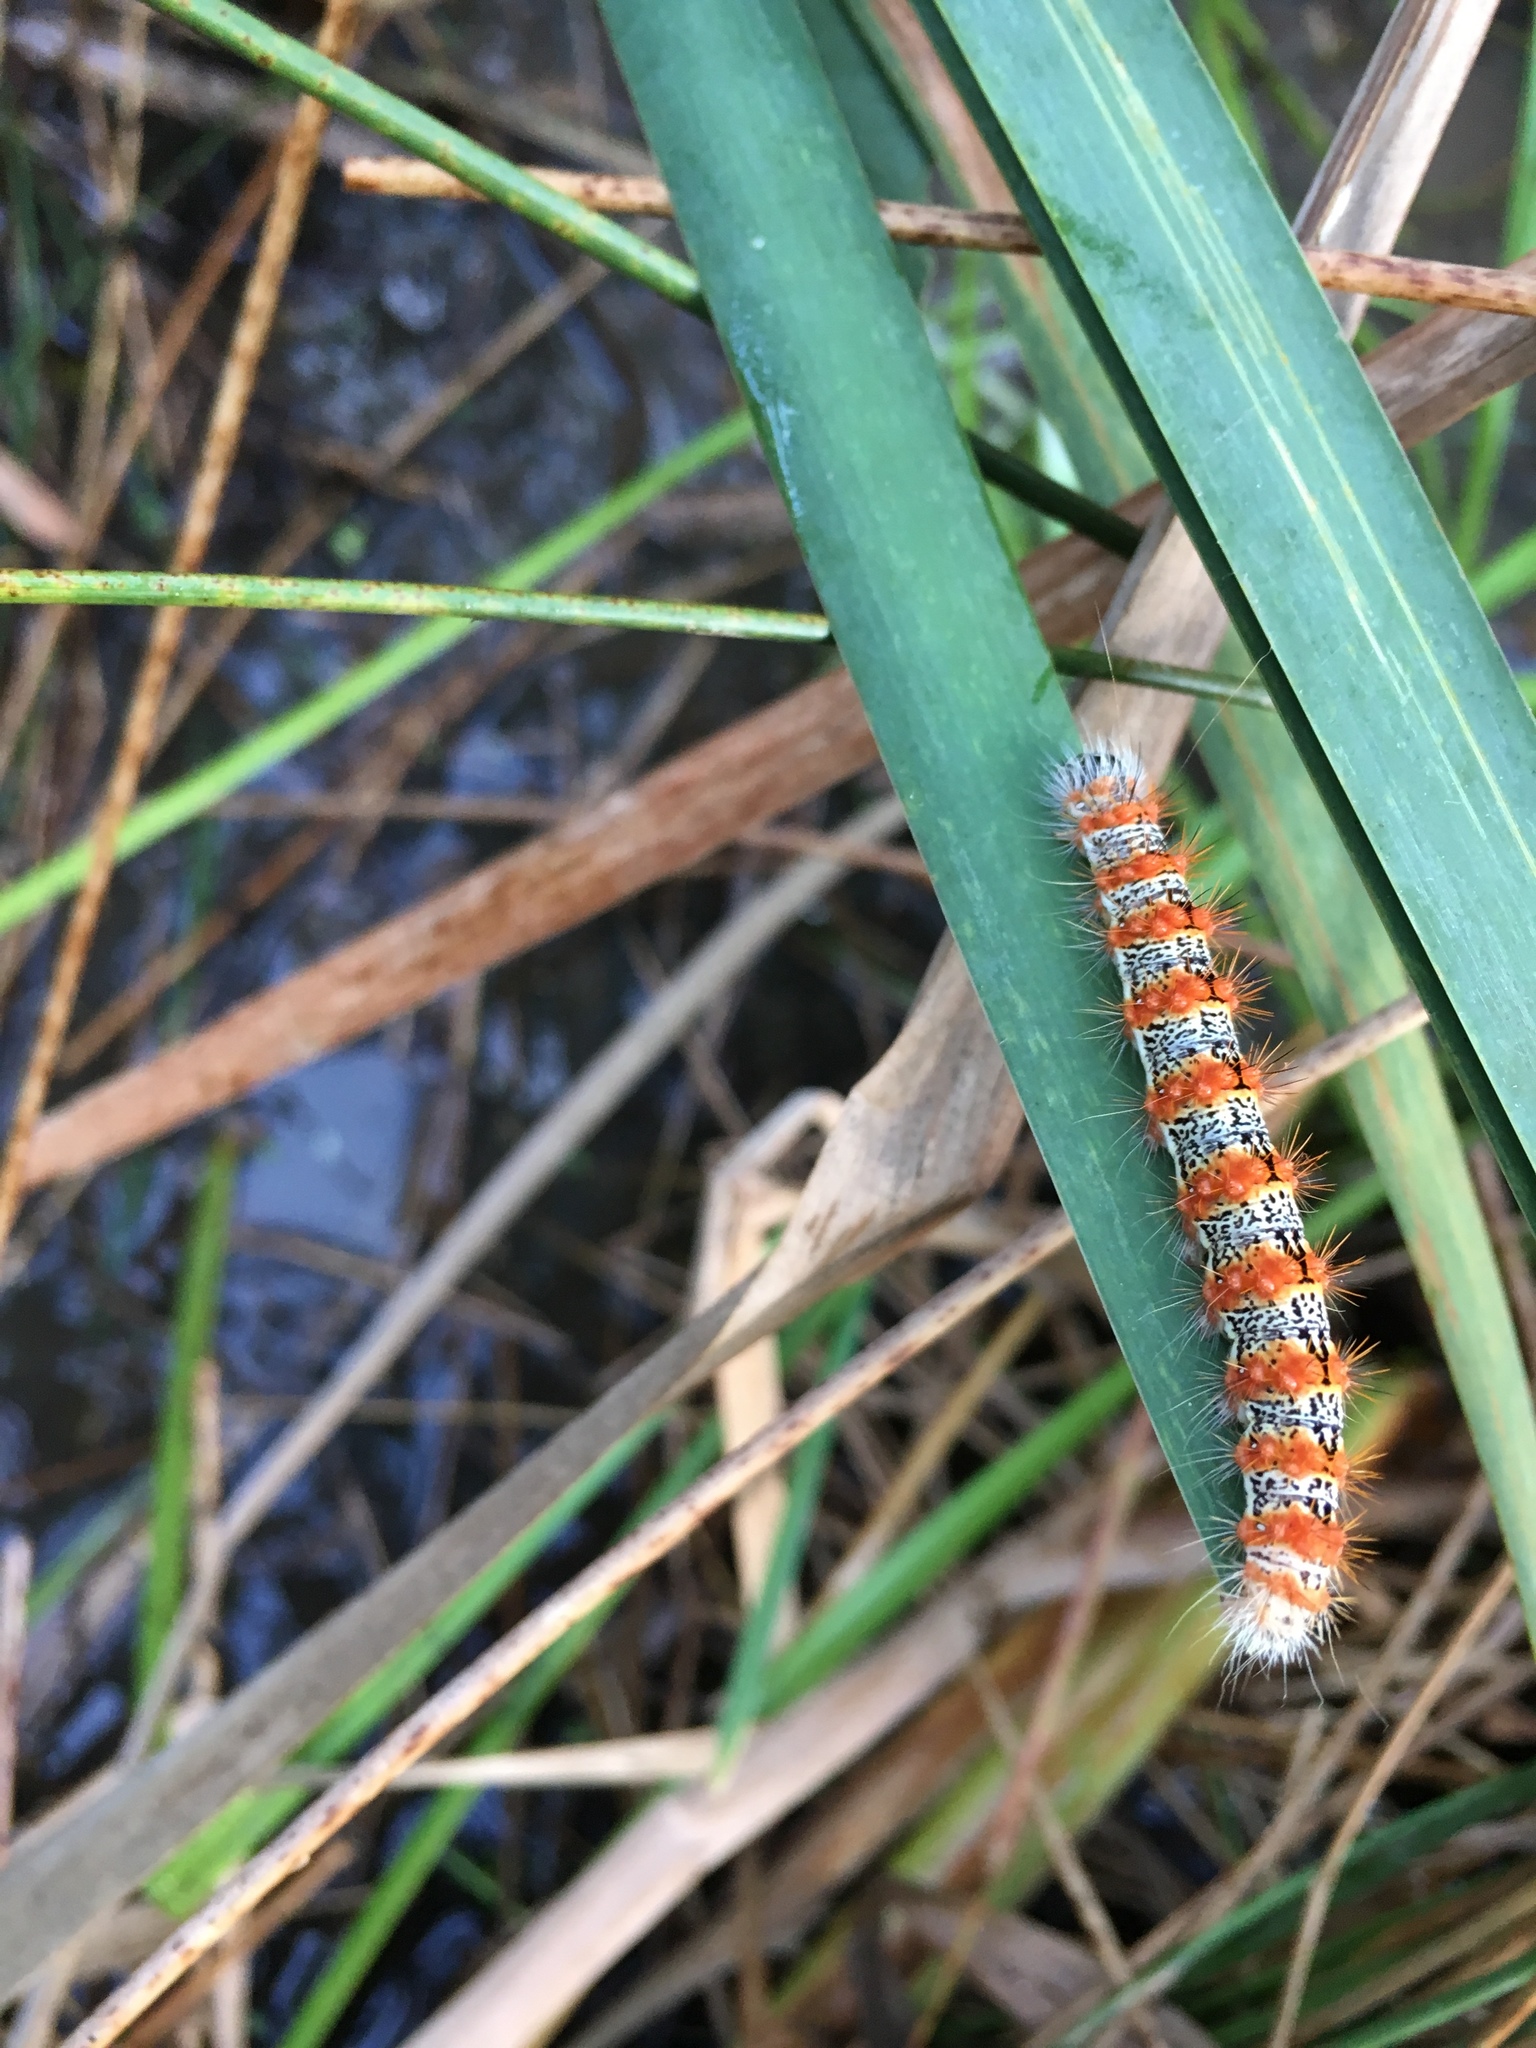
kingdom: Animalia
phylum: Arthropoda
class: Insecta
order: Lepidoptera
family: Noctuidae
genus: Acronicta
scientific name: Acronicta insularis
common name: Henry's marsh moth
